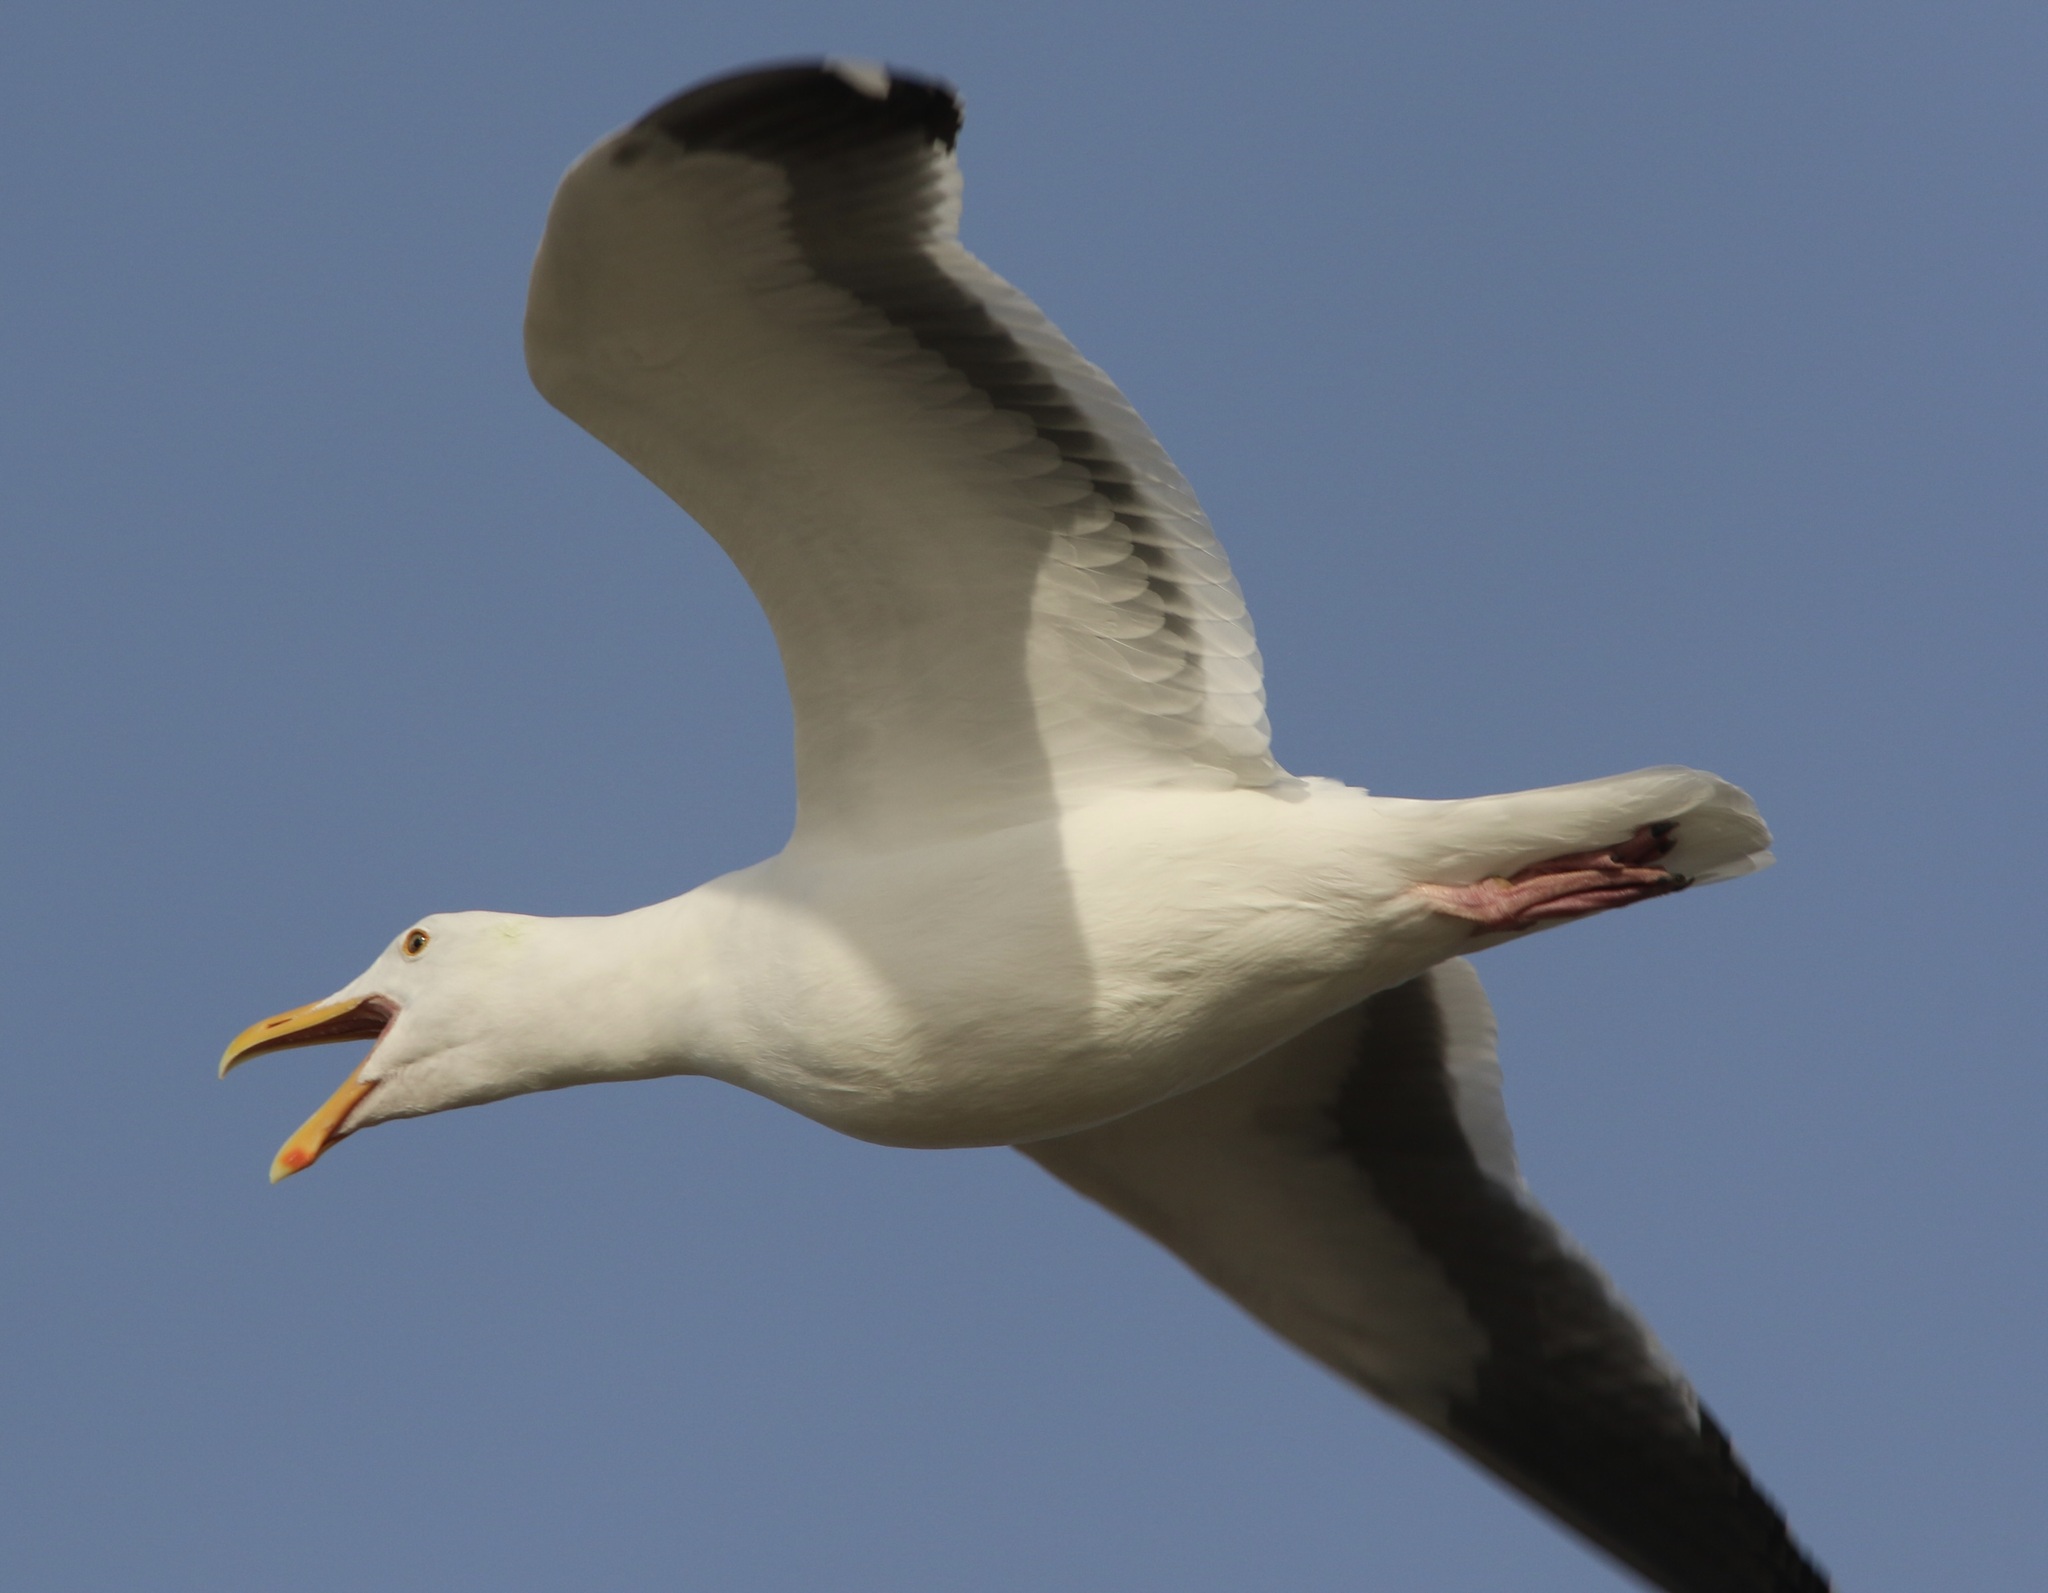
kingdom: Animalia
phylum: Chordata
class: Aves
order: Charadriiformes
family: Laridae
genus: Larus
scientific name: Larus occidentalis
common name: Western gull
